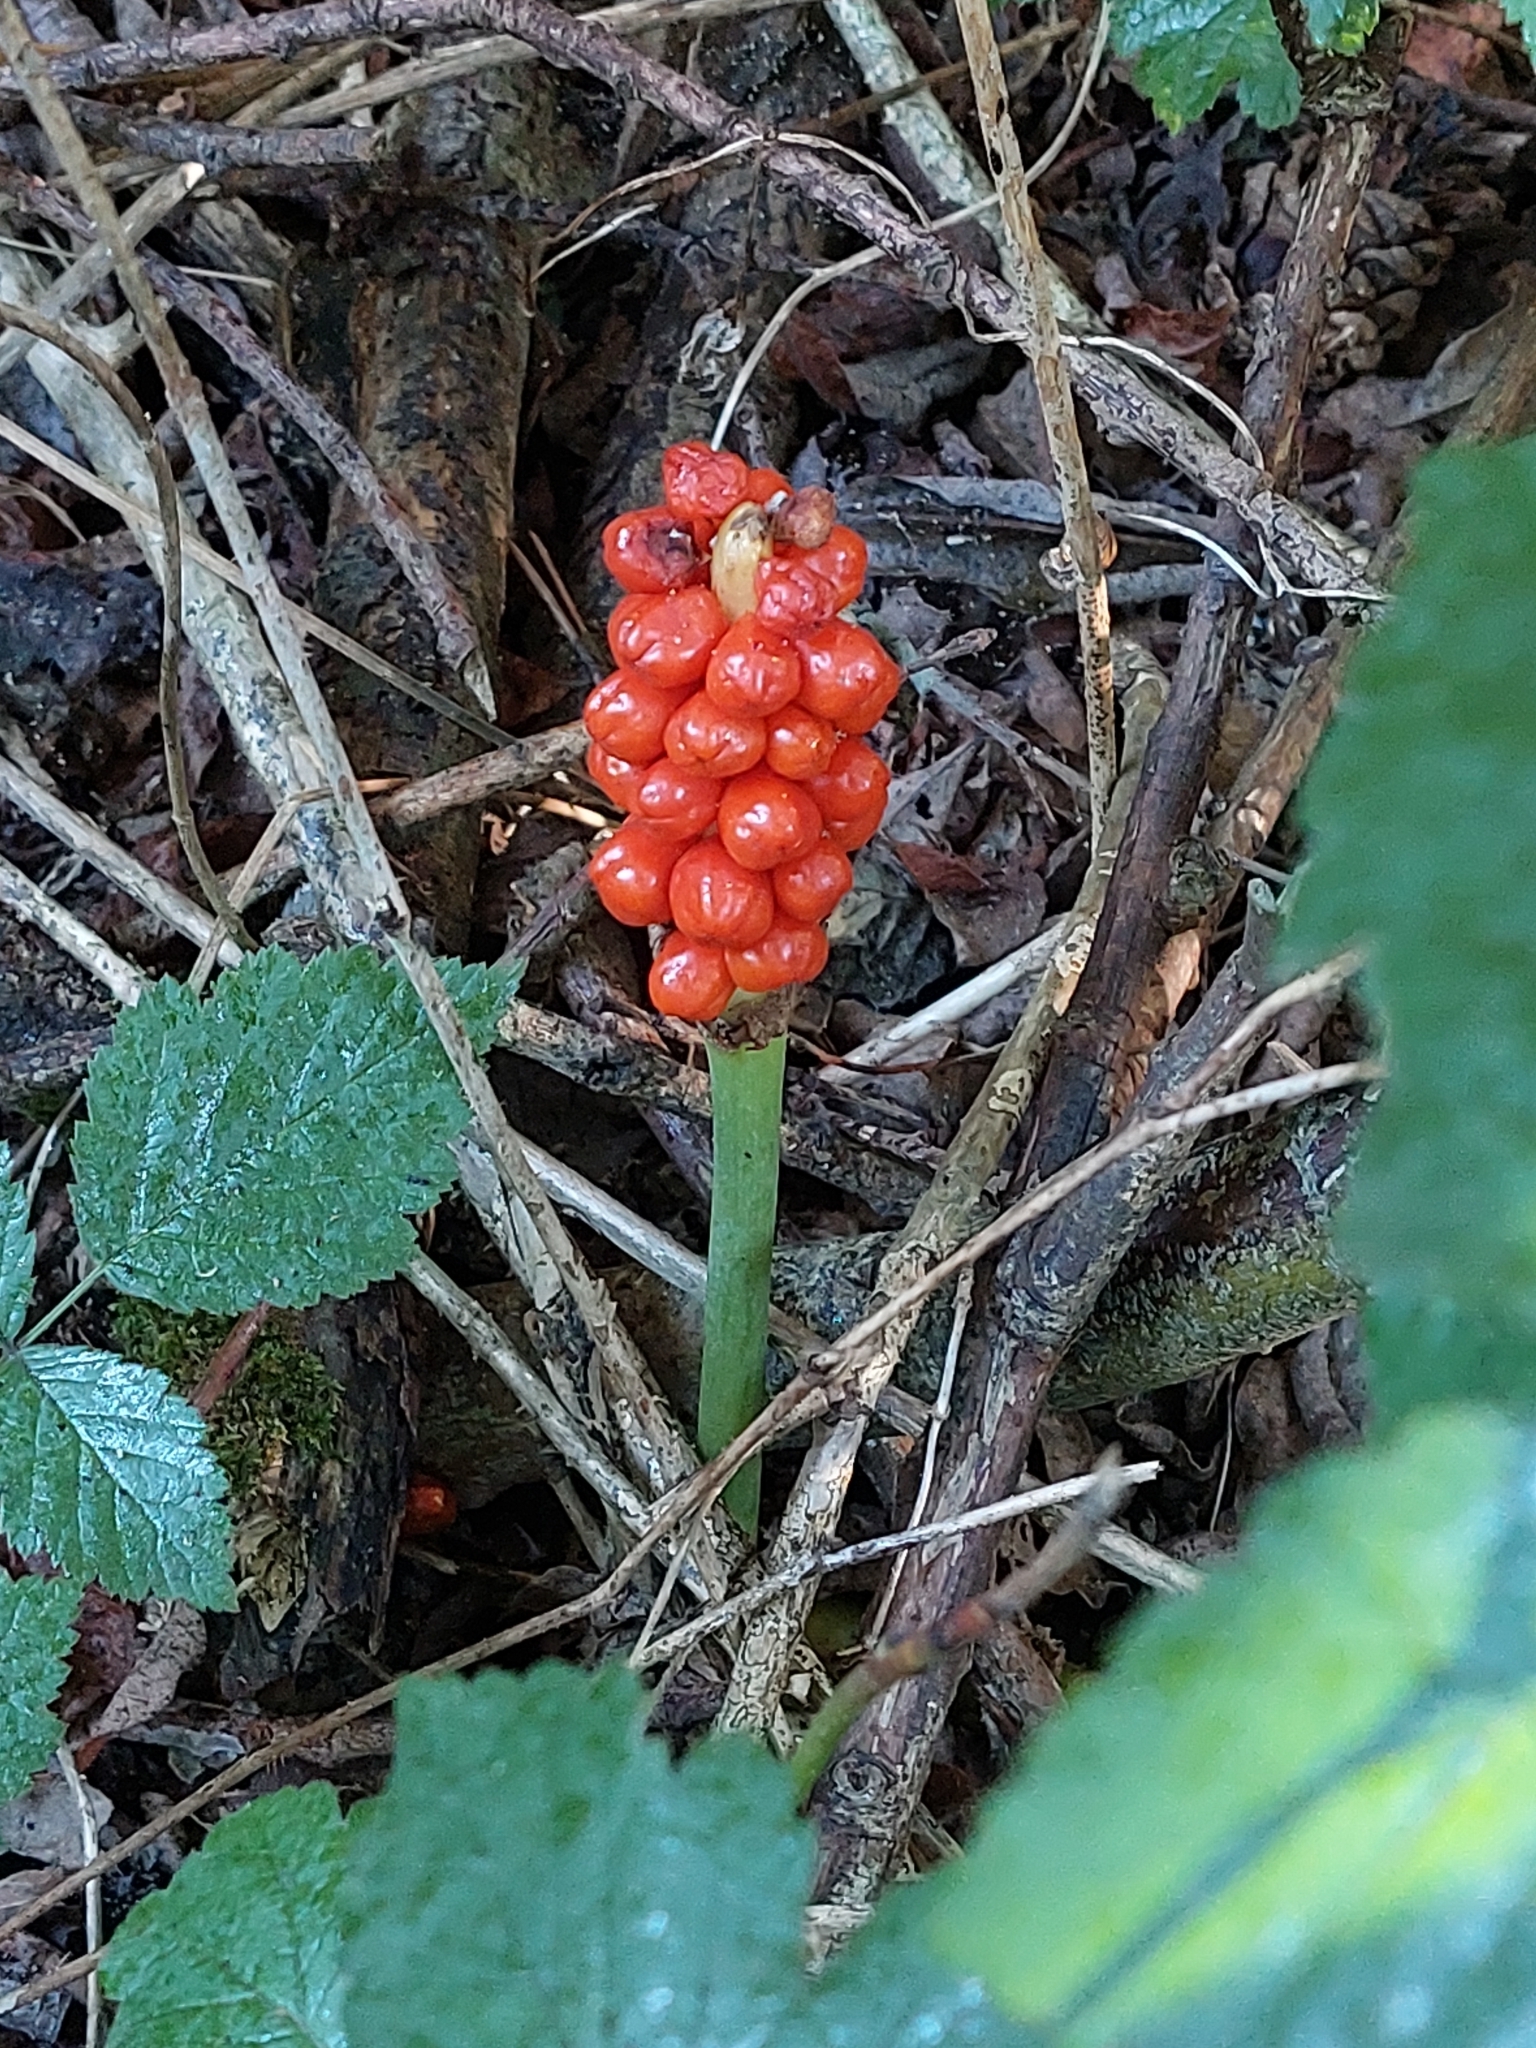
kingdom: Plantae
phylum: Tracheophyta
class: Liliopsida
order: Alismatales
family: Araceae
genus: Arum
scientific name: Arum maculatum
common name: Lords-and-ladies
